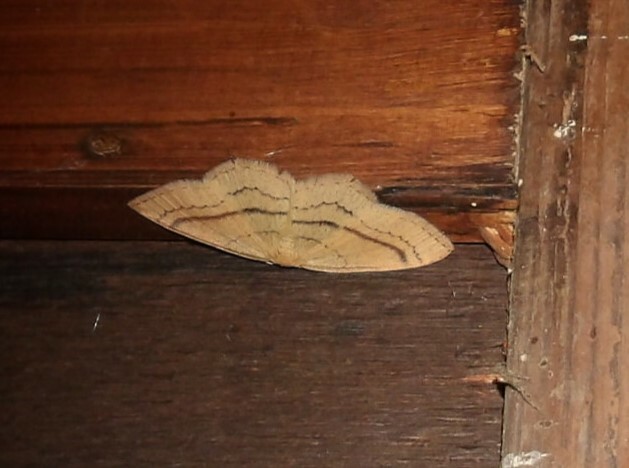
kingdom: Animalia
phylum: Arthropoda
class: Insecta
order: Lepidoptera
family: Geometridae
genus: Cyclophora
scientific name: Cyclophora linearia
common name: Clay triple-lines
